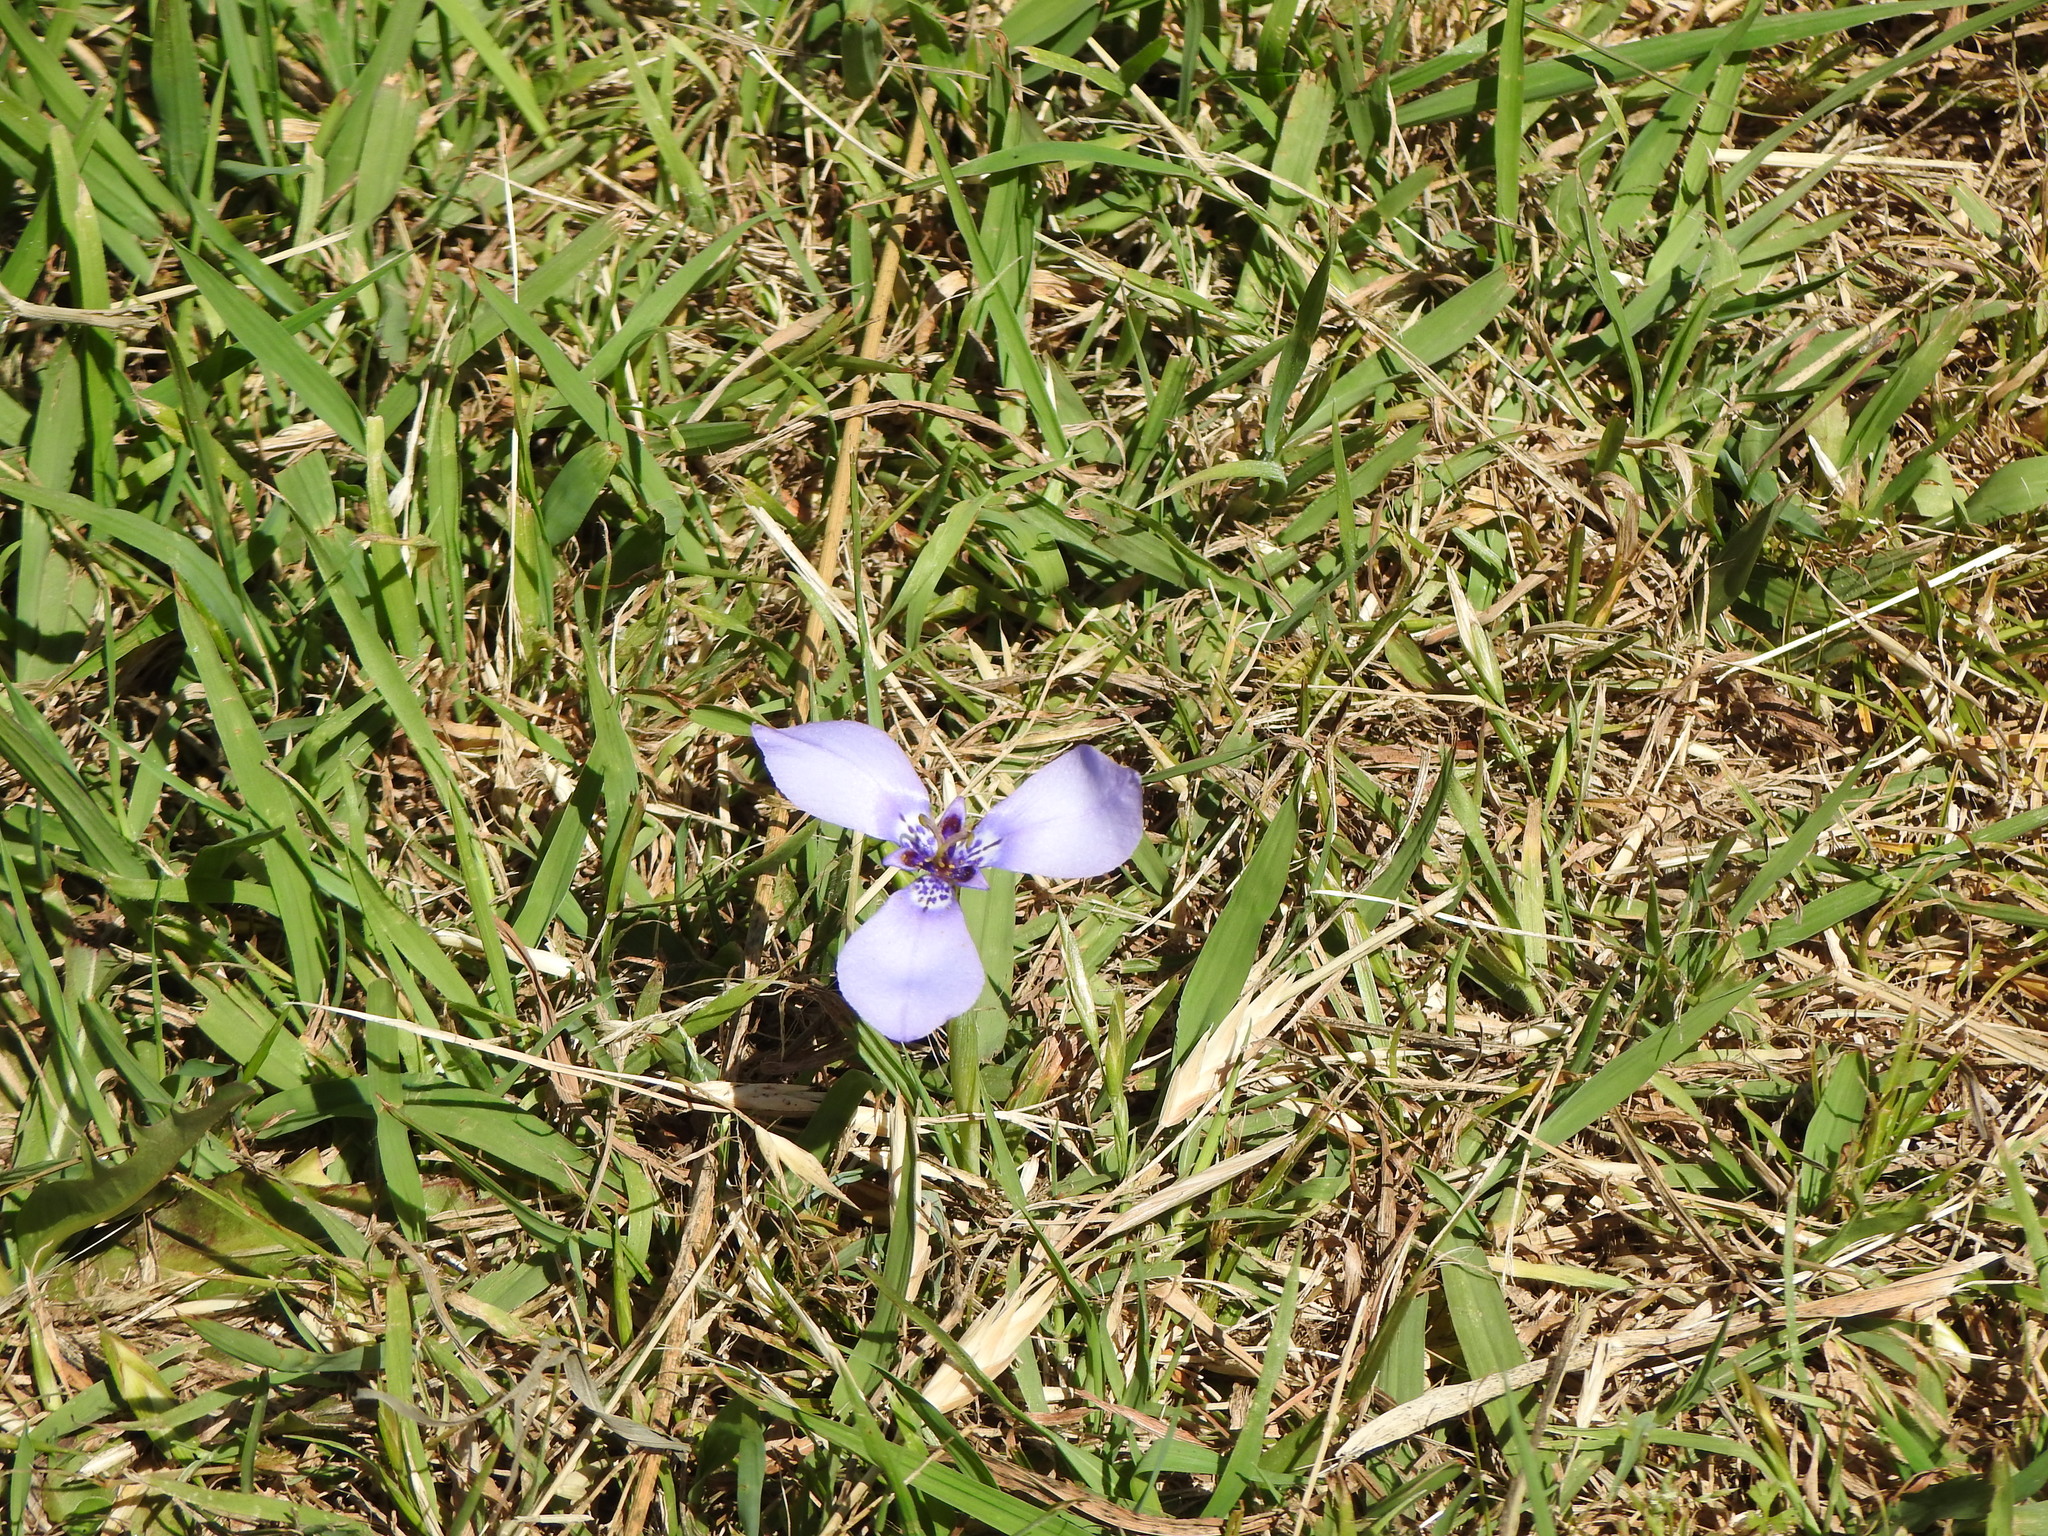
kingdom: Plantae
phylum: Tracheophyta
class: Liliopsida
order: Asparagales
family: Iridaceae
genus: Herbertia
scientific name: Herbertia lahue
